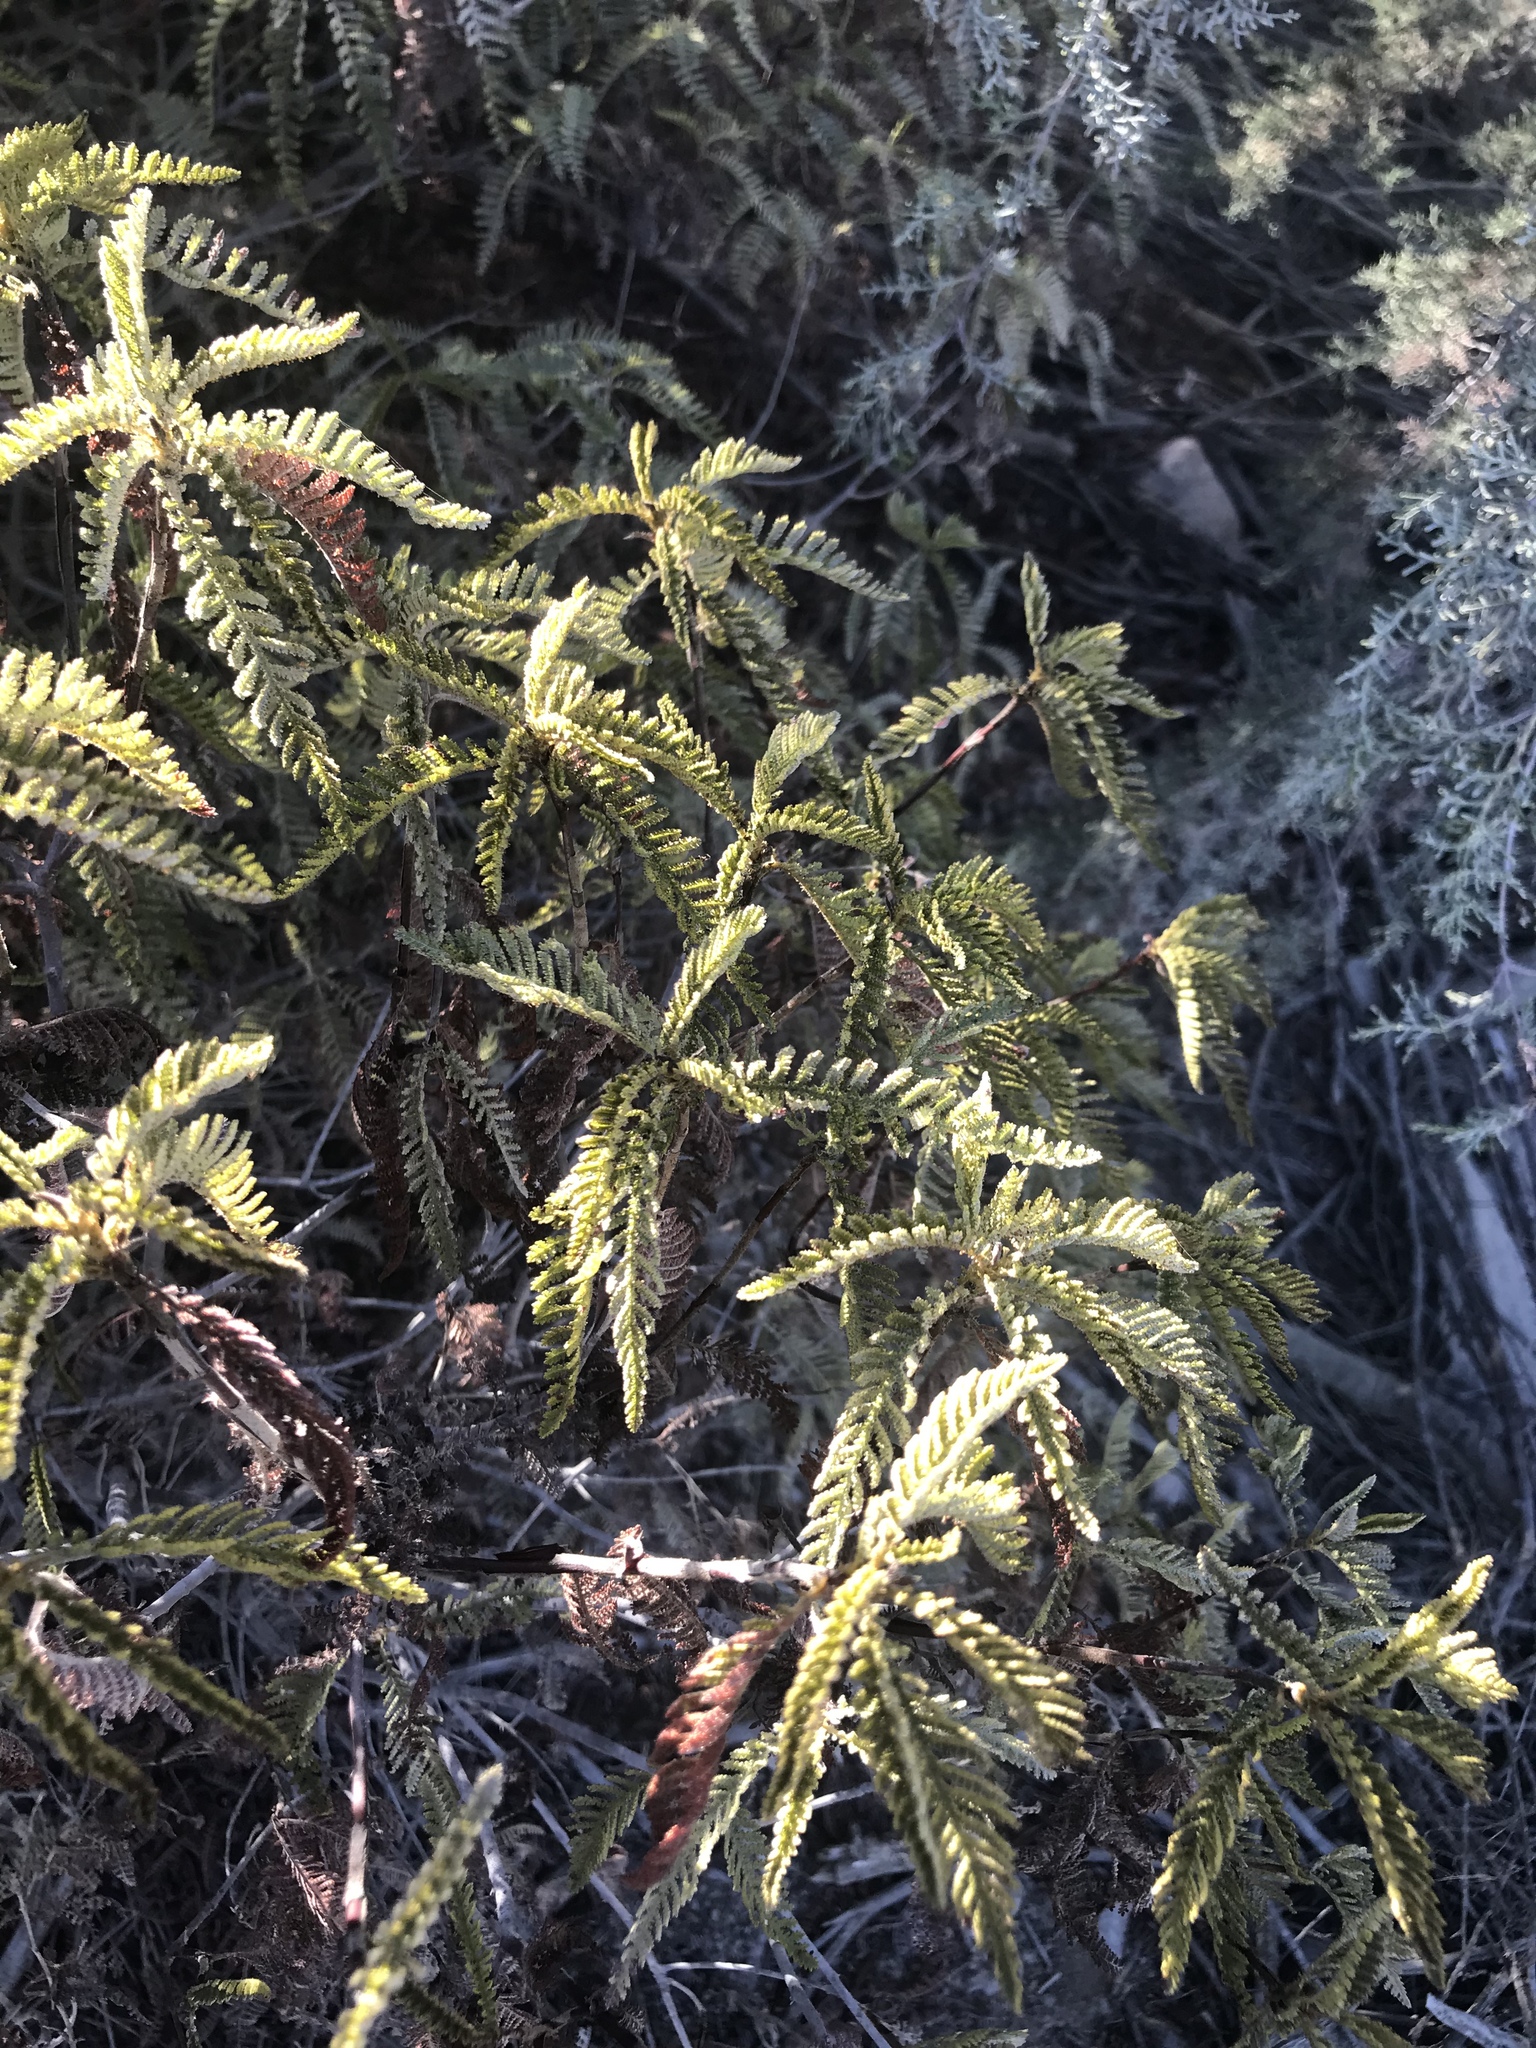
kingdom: Plantae
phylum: Tracheophyta
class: Magnoliopsida
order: Rosales
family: Rosaceae
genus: Chamaebatia
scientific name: Chamaebatia australis
